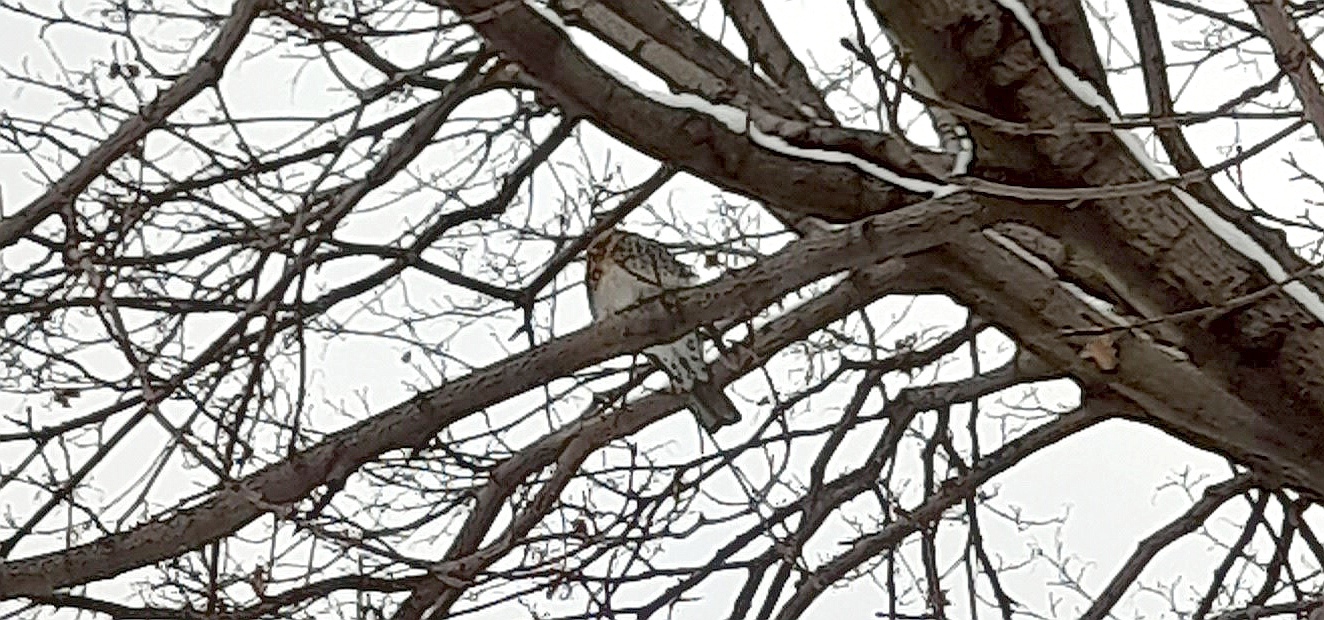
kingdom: Animalia
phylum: Chordata
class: Aves
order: Passeriformes
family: Turdidae
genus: Turdus
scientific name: Turdus pilaris
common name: Fieldfare
